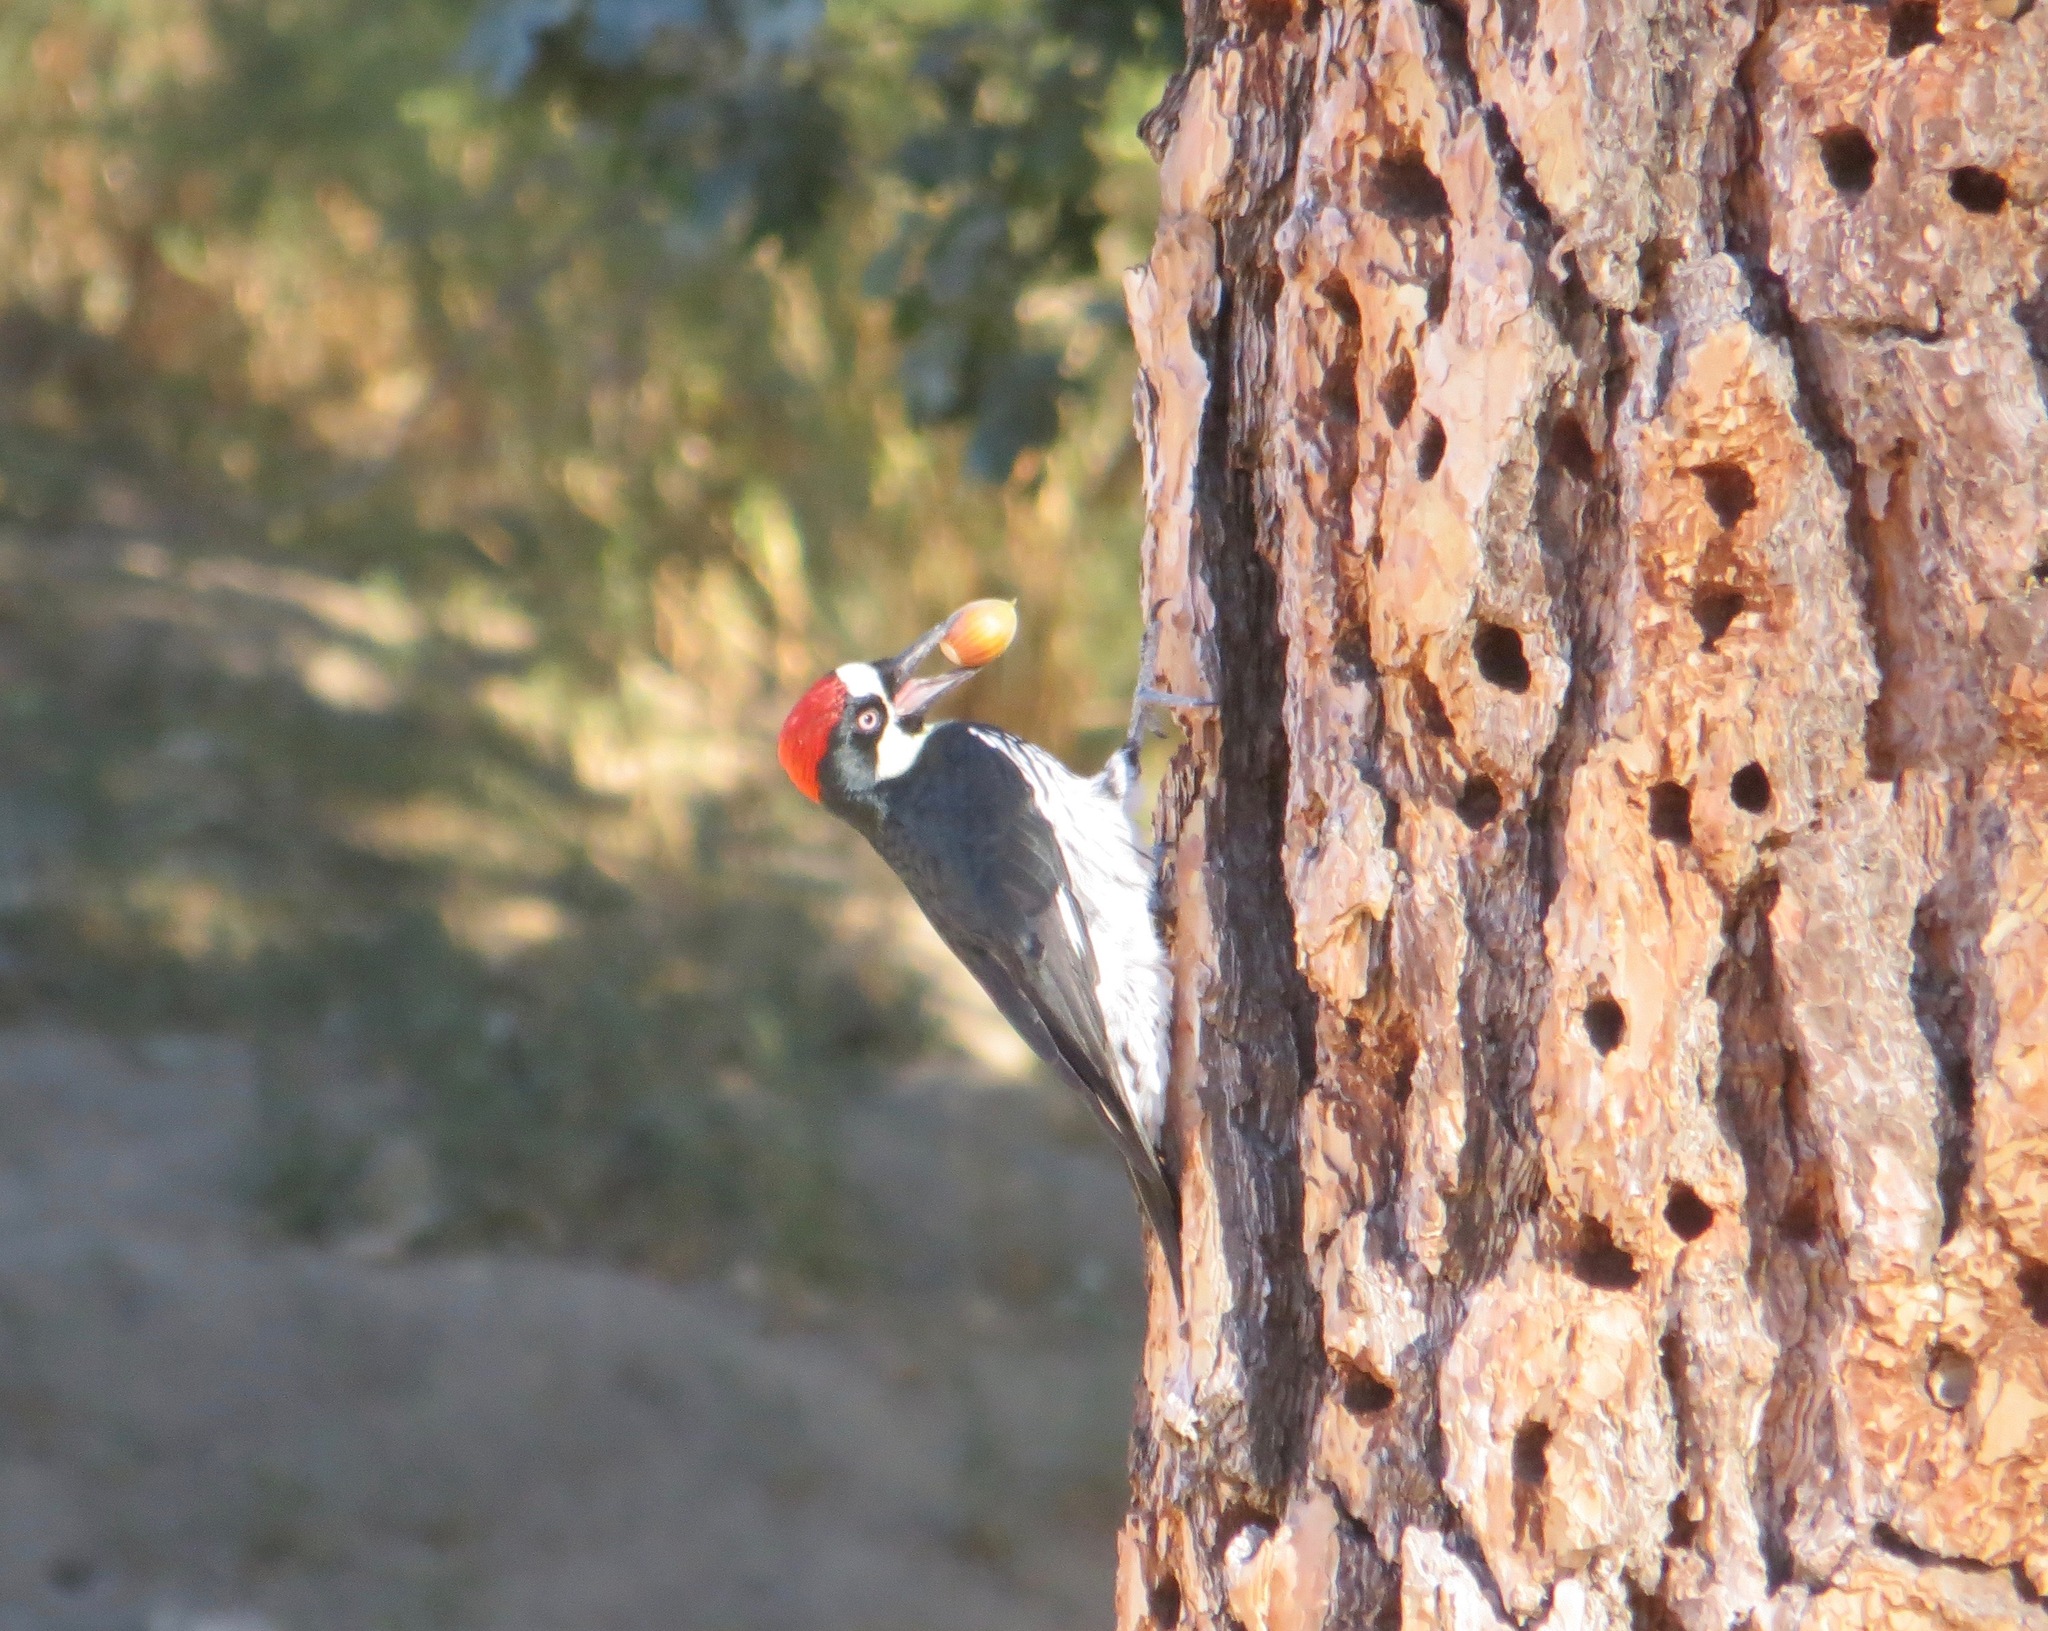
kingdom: Animalia
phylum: Chordata
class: Aves
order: Piciformes
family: Picidae
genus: Melanerpes
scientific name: Melanerpes formicivorus
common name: Acorn woodpecker
